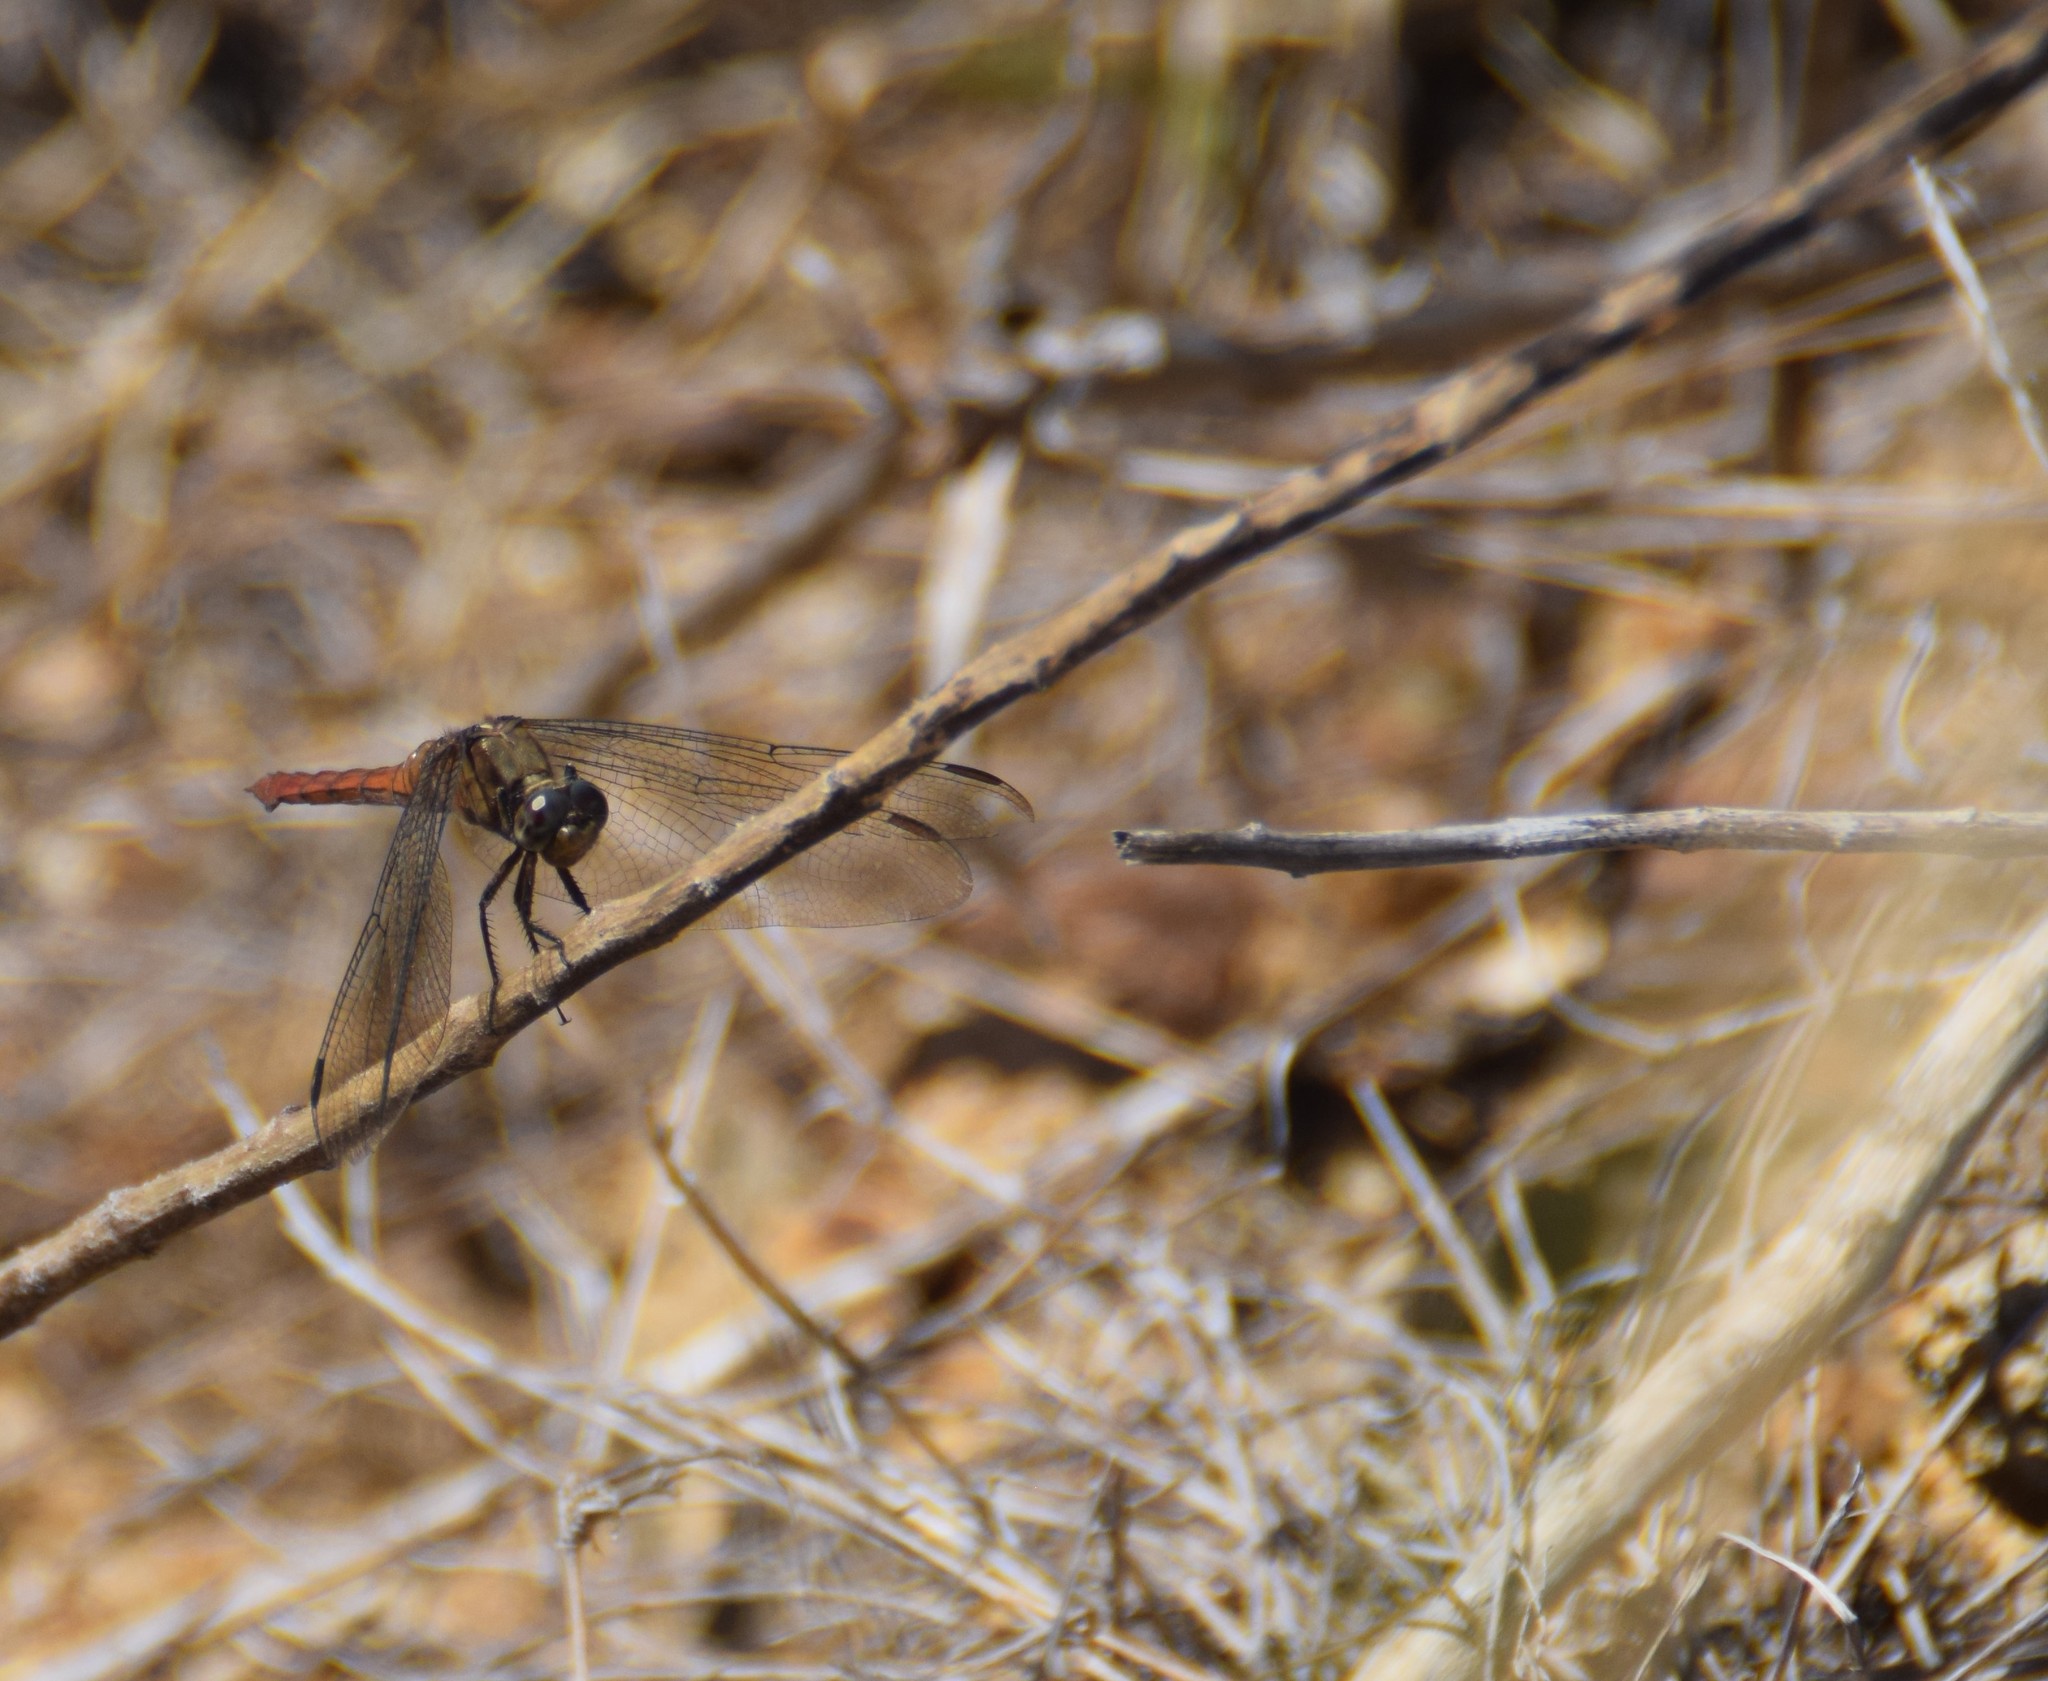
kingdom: Animalia
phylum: Arthropoda
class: Insecta
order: Odonata
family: Libellulidae
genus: Orthetrum
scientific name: Orthetrum villosovittatum
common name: Firery skimmer
